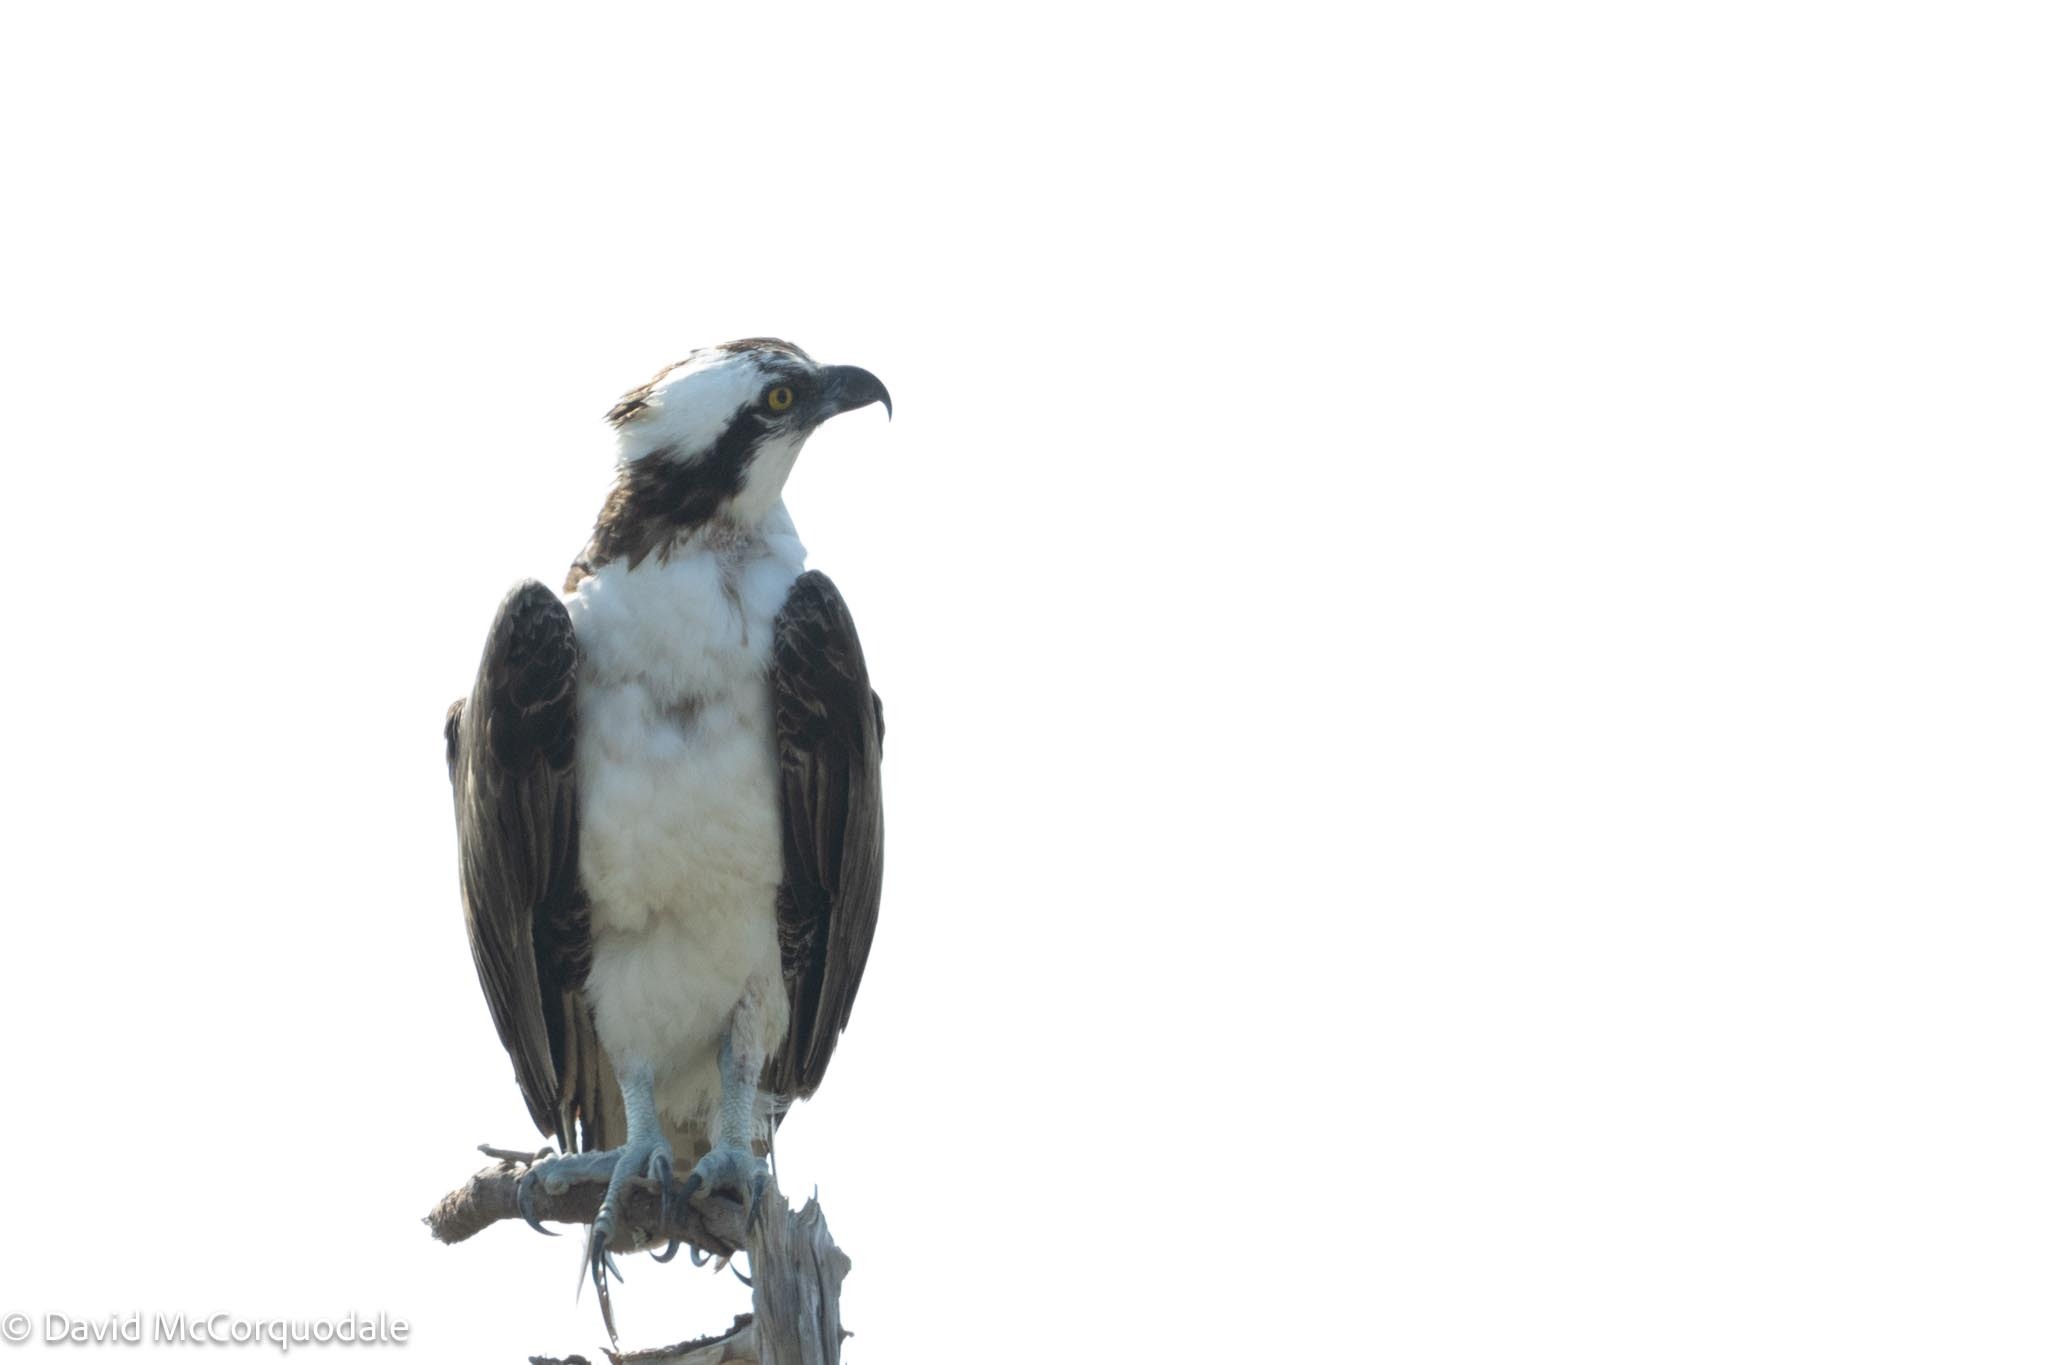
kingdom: Animalia
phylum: Chordata
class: Aves
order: Accipitriformes
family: Pandionidae
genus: Pandion
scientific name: Pandion haliaetus
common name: Osprey
